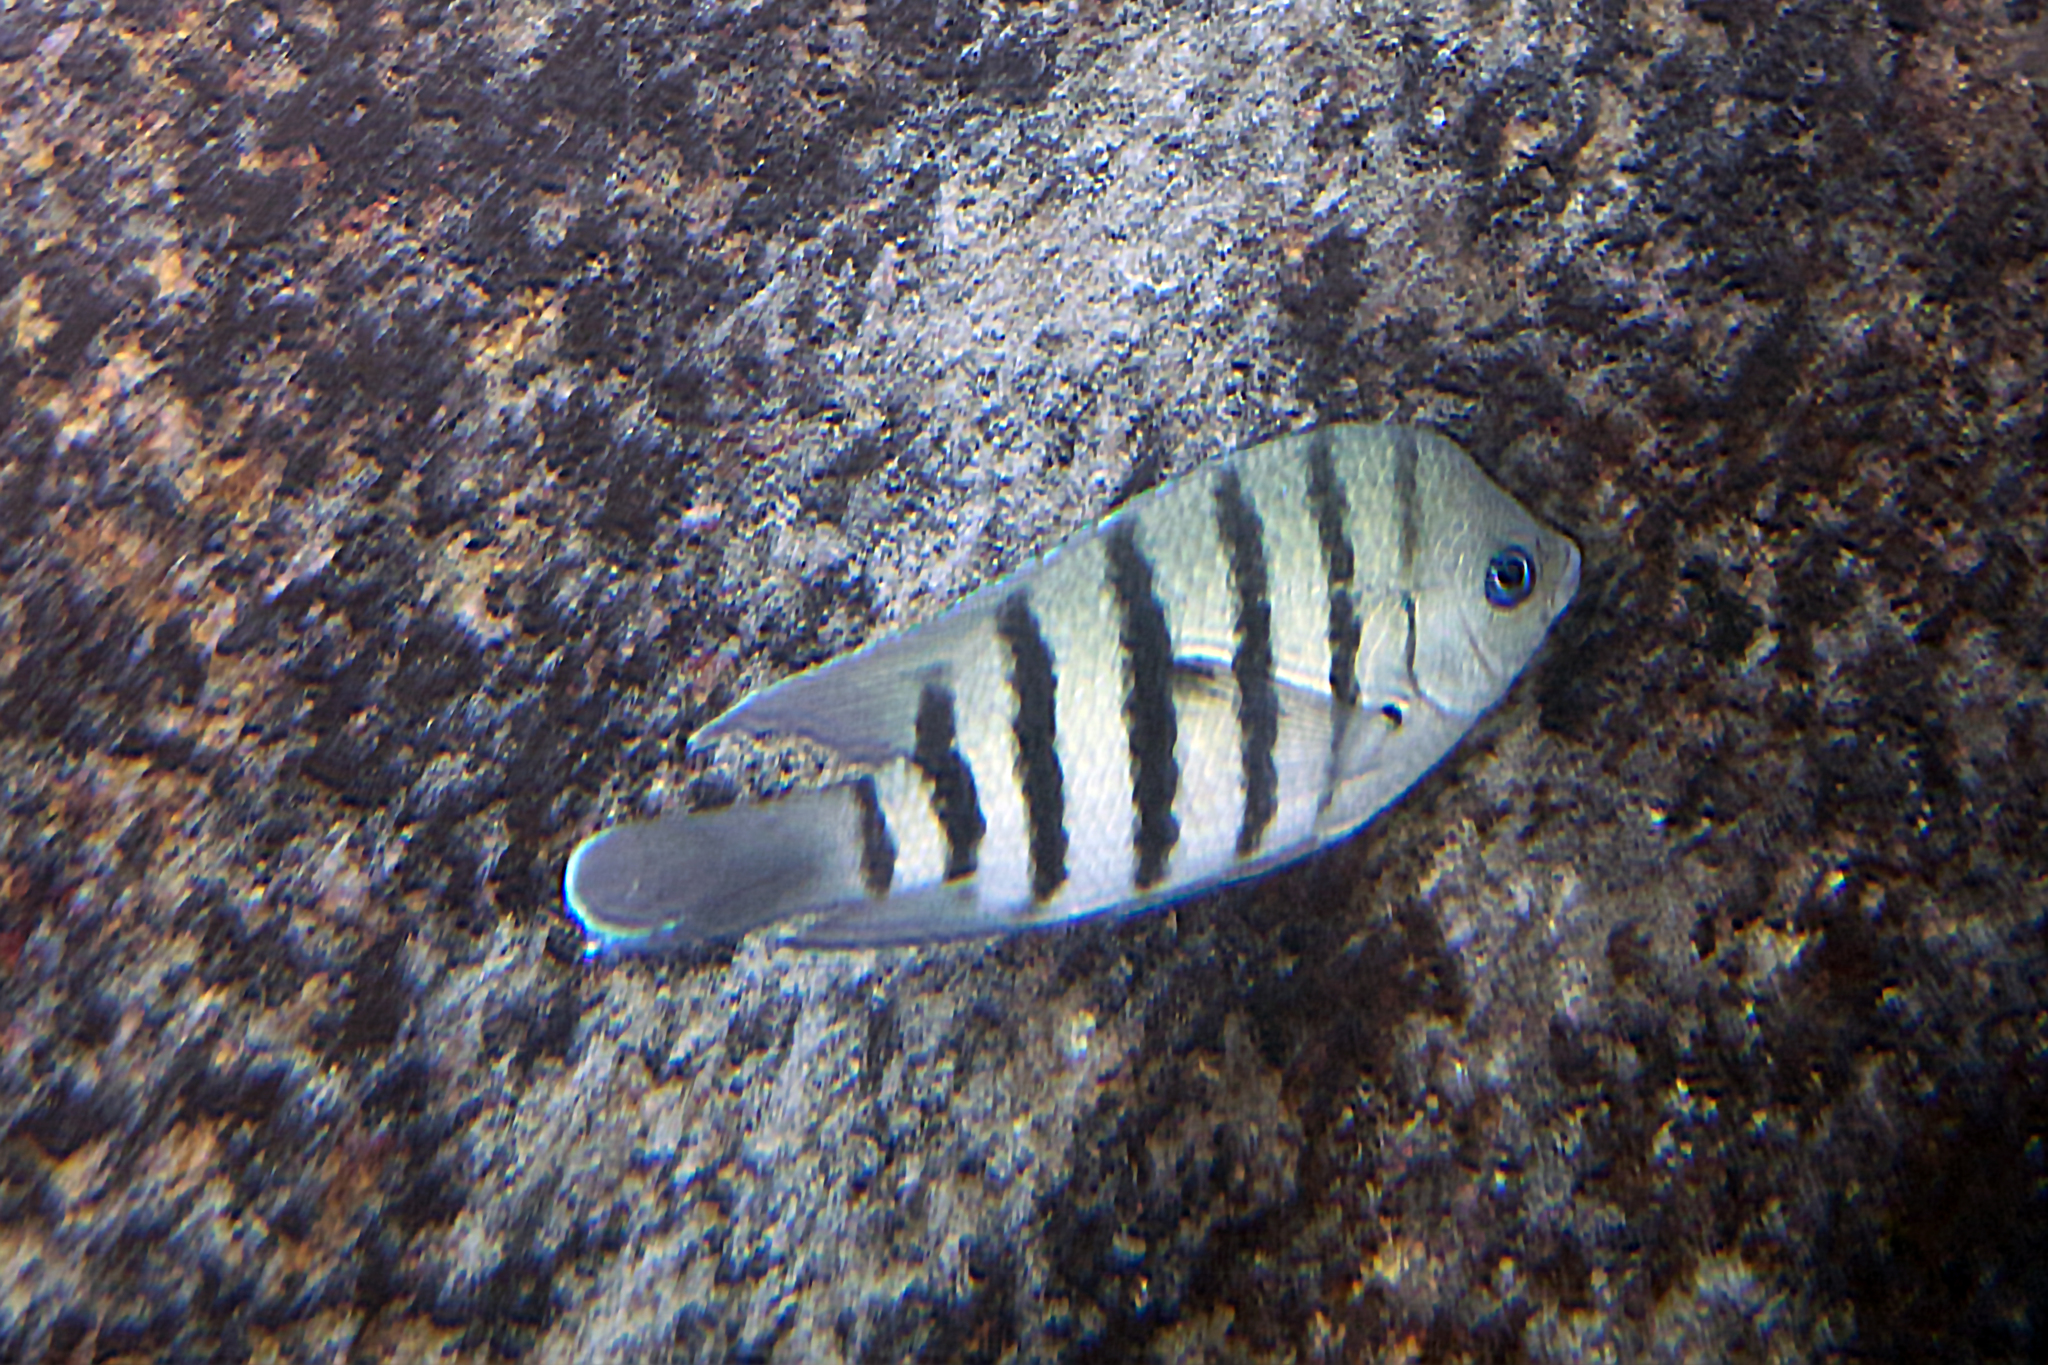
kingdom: Animalia
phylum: Chordata
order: Perciformes
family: Pomacentridae
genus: Abudefduf
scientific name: Abudefduf bengalensis
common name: Bengal sergeant
